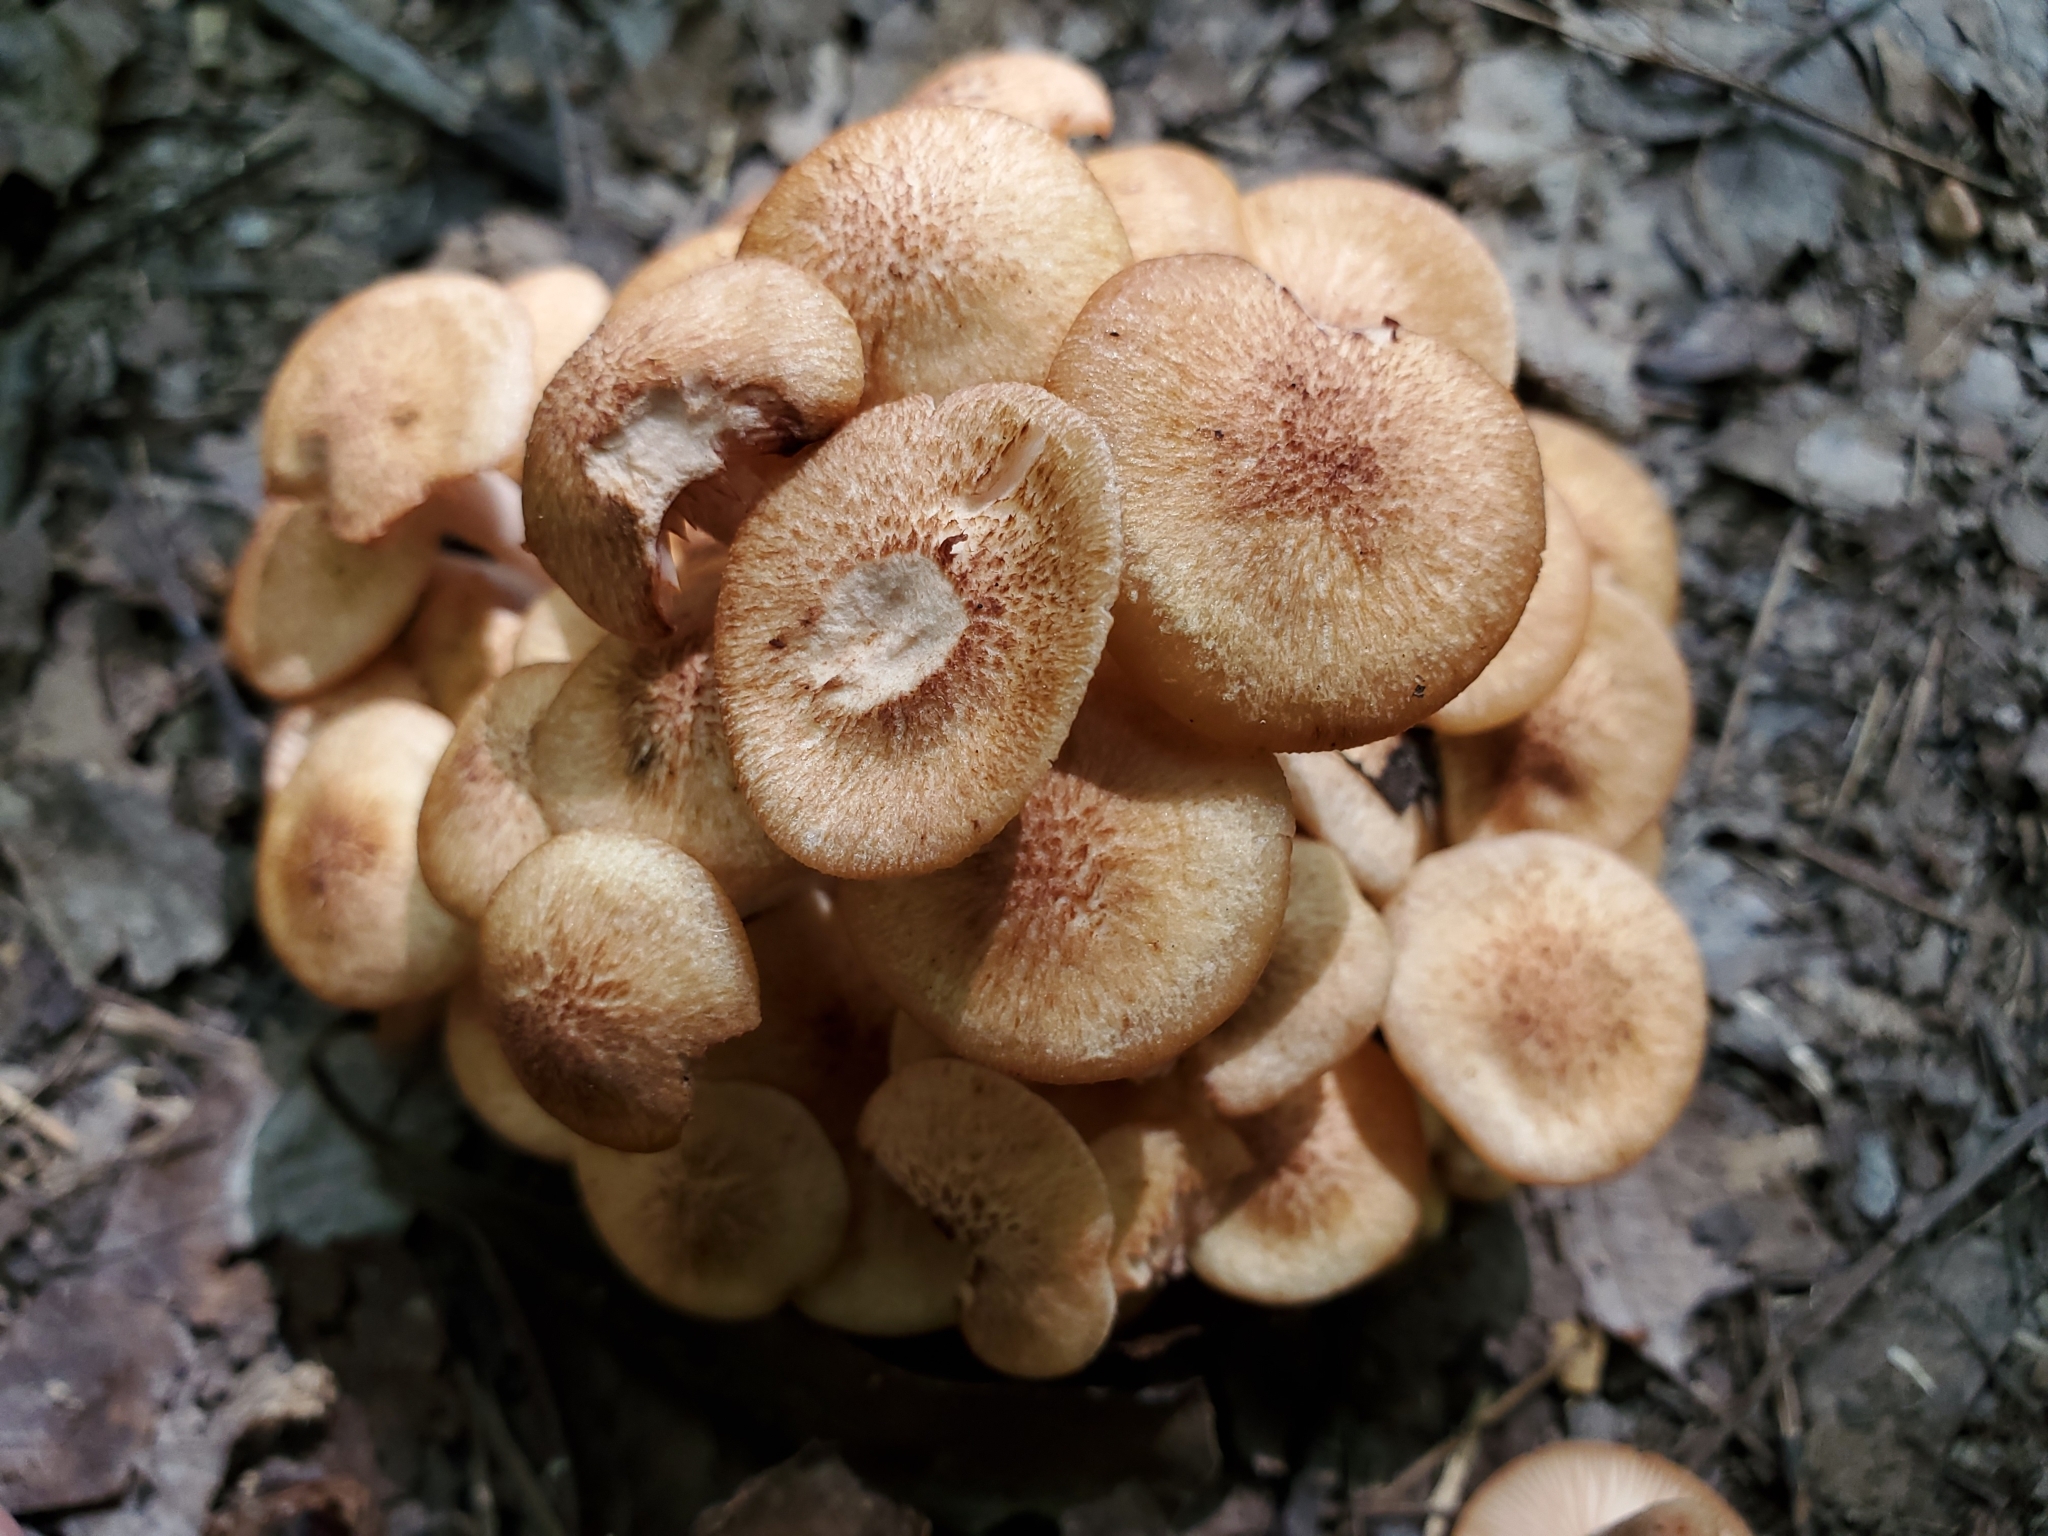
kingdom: Fungi
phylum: Basidiomycota
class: Agaricomycetes
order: Agaricales
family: Physalacriaceae
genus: Desarmillaria
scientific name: Desarmillaria caespitosa
